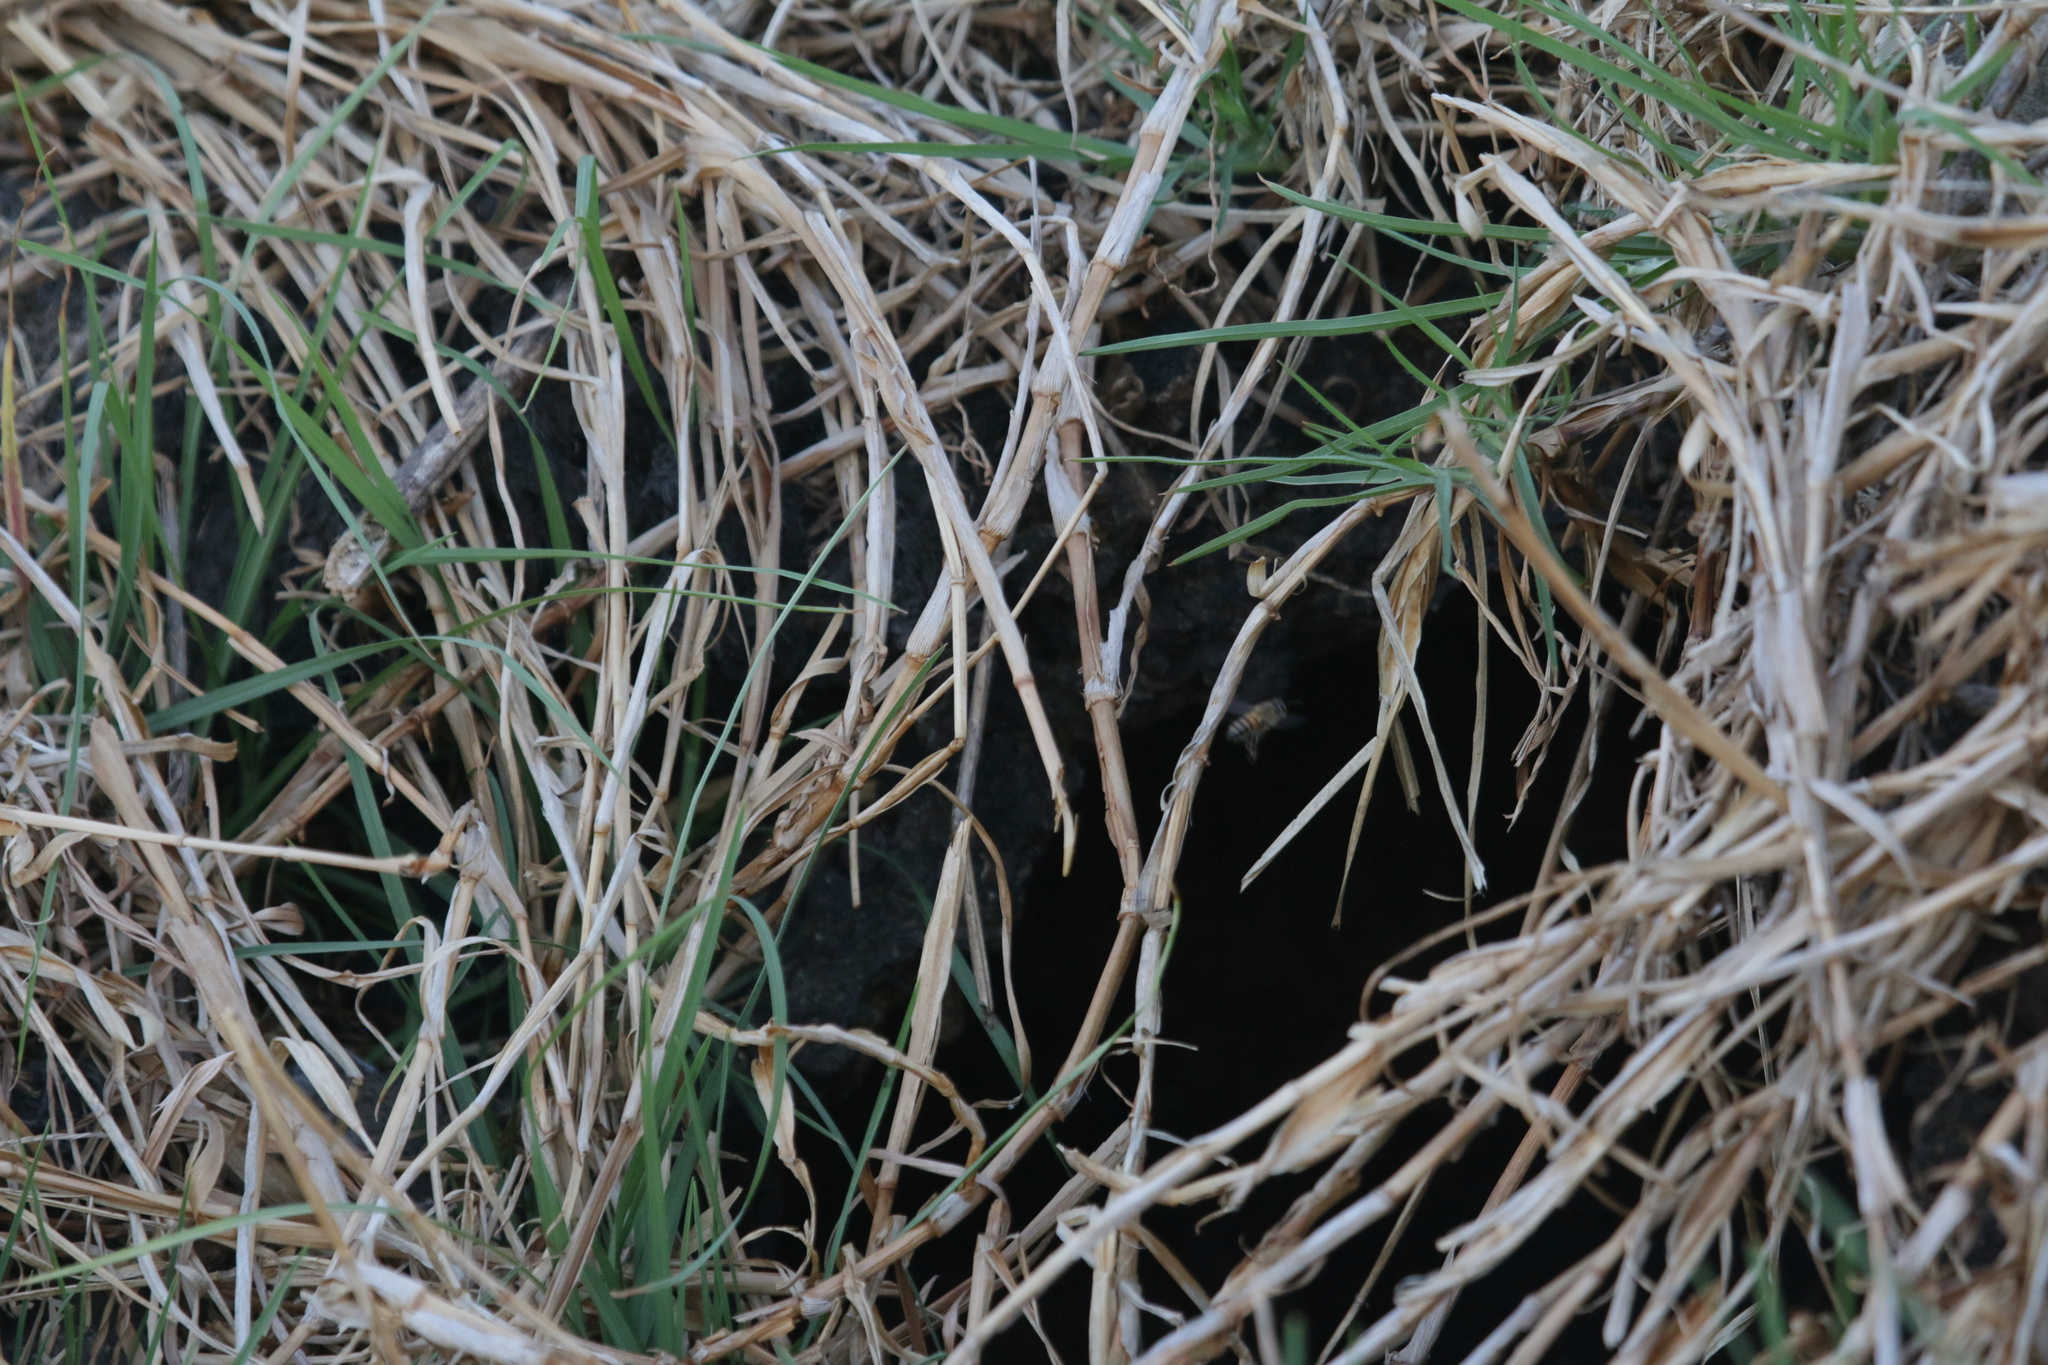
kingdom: Animalia
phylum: Arthropoda
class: Insecta
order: Hymenoptera
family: Apidae
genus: Apis
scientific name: Apis mellifera
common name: Honey bee
